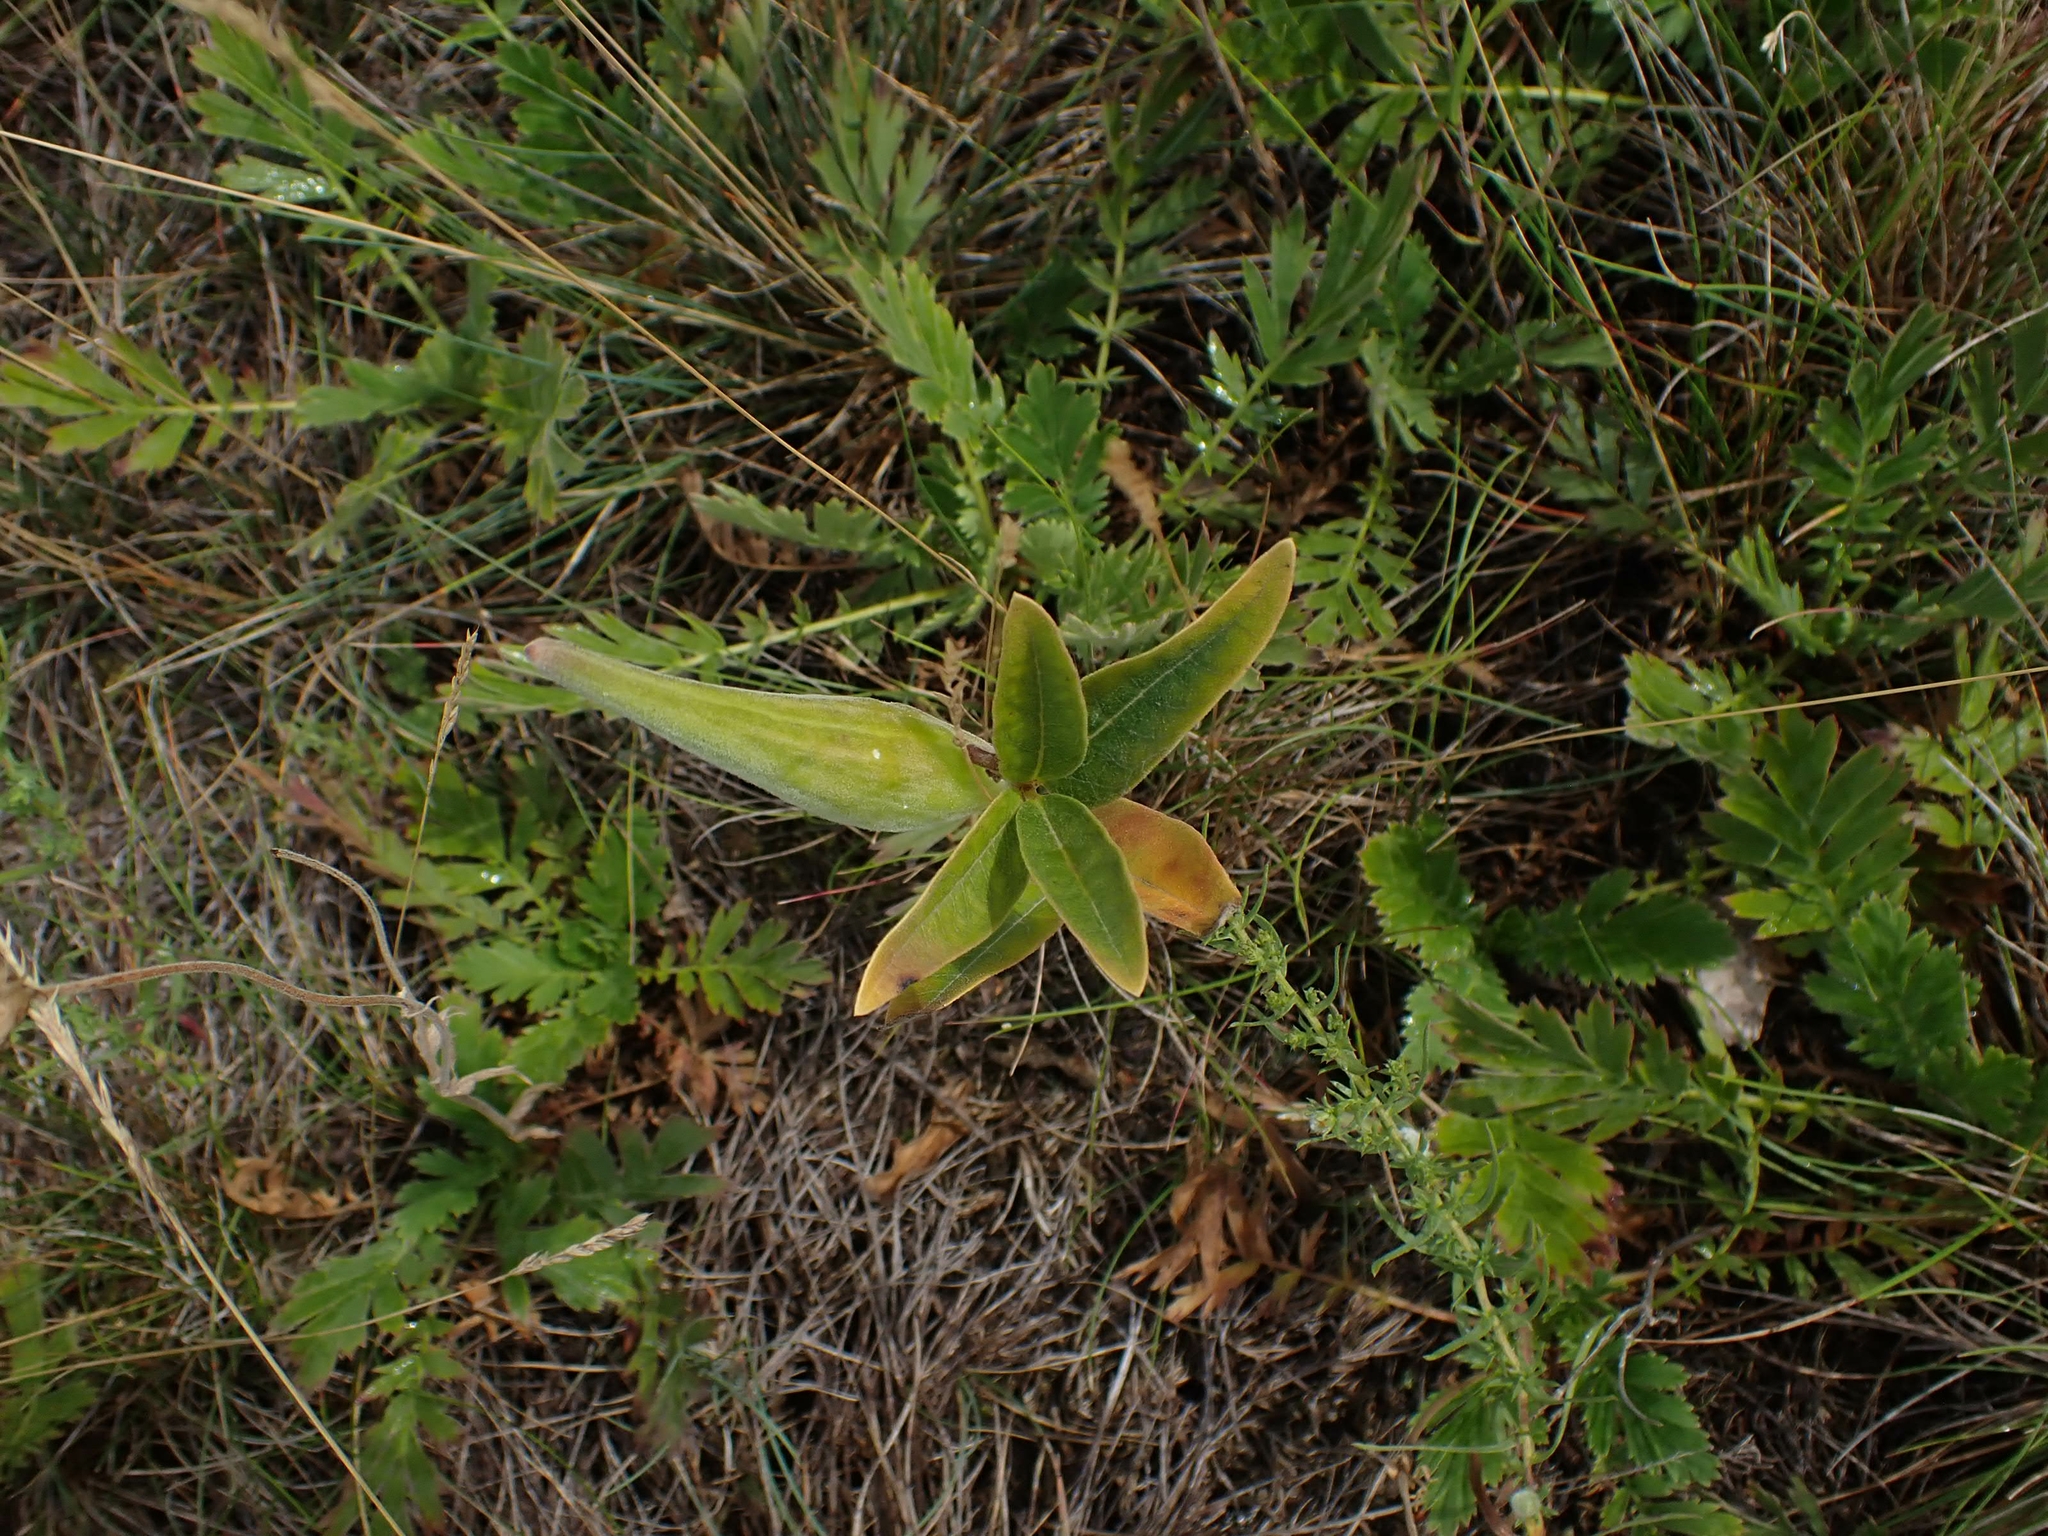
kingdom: Plantae
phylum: Tracheophyta
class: Magnoliopsida
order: Gentianales
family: Apocynaceae
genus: Asclepias
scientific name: Asclepias ovalifolia
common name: Dwarf milkweed
